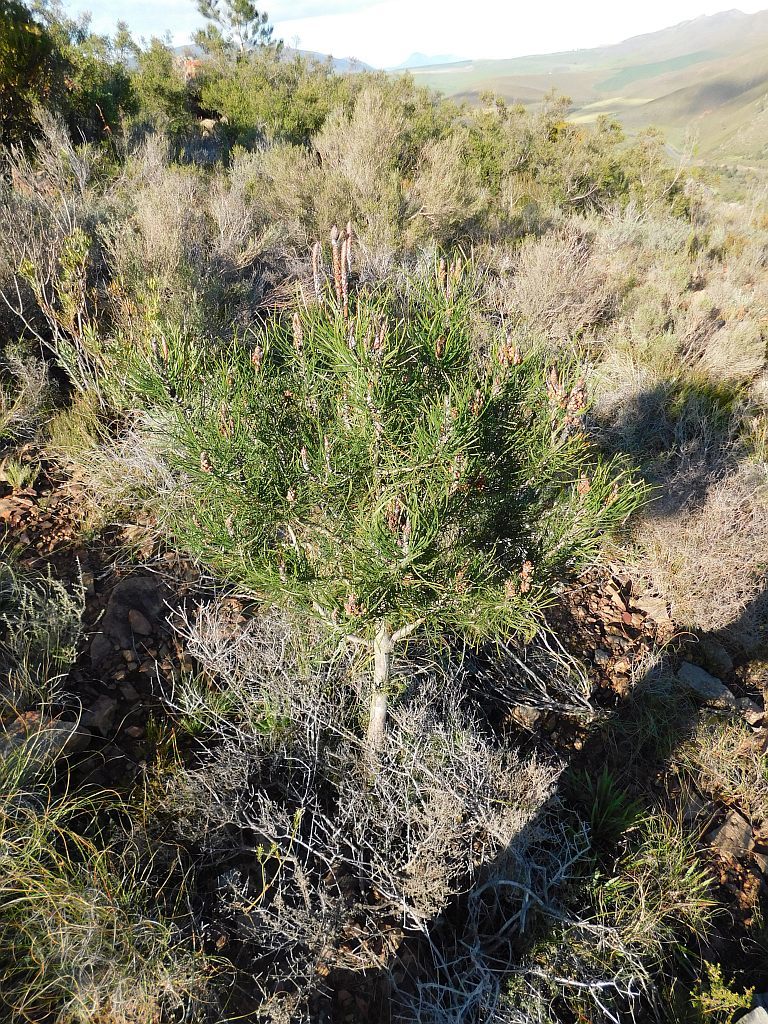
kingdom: Plantae
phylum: Tracheophyta
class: Pinopsida
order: Pinales
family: Pinaceae
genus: Pinus
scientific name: Pinus pinaster
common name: Maritime pine
